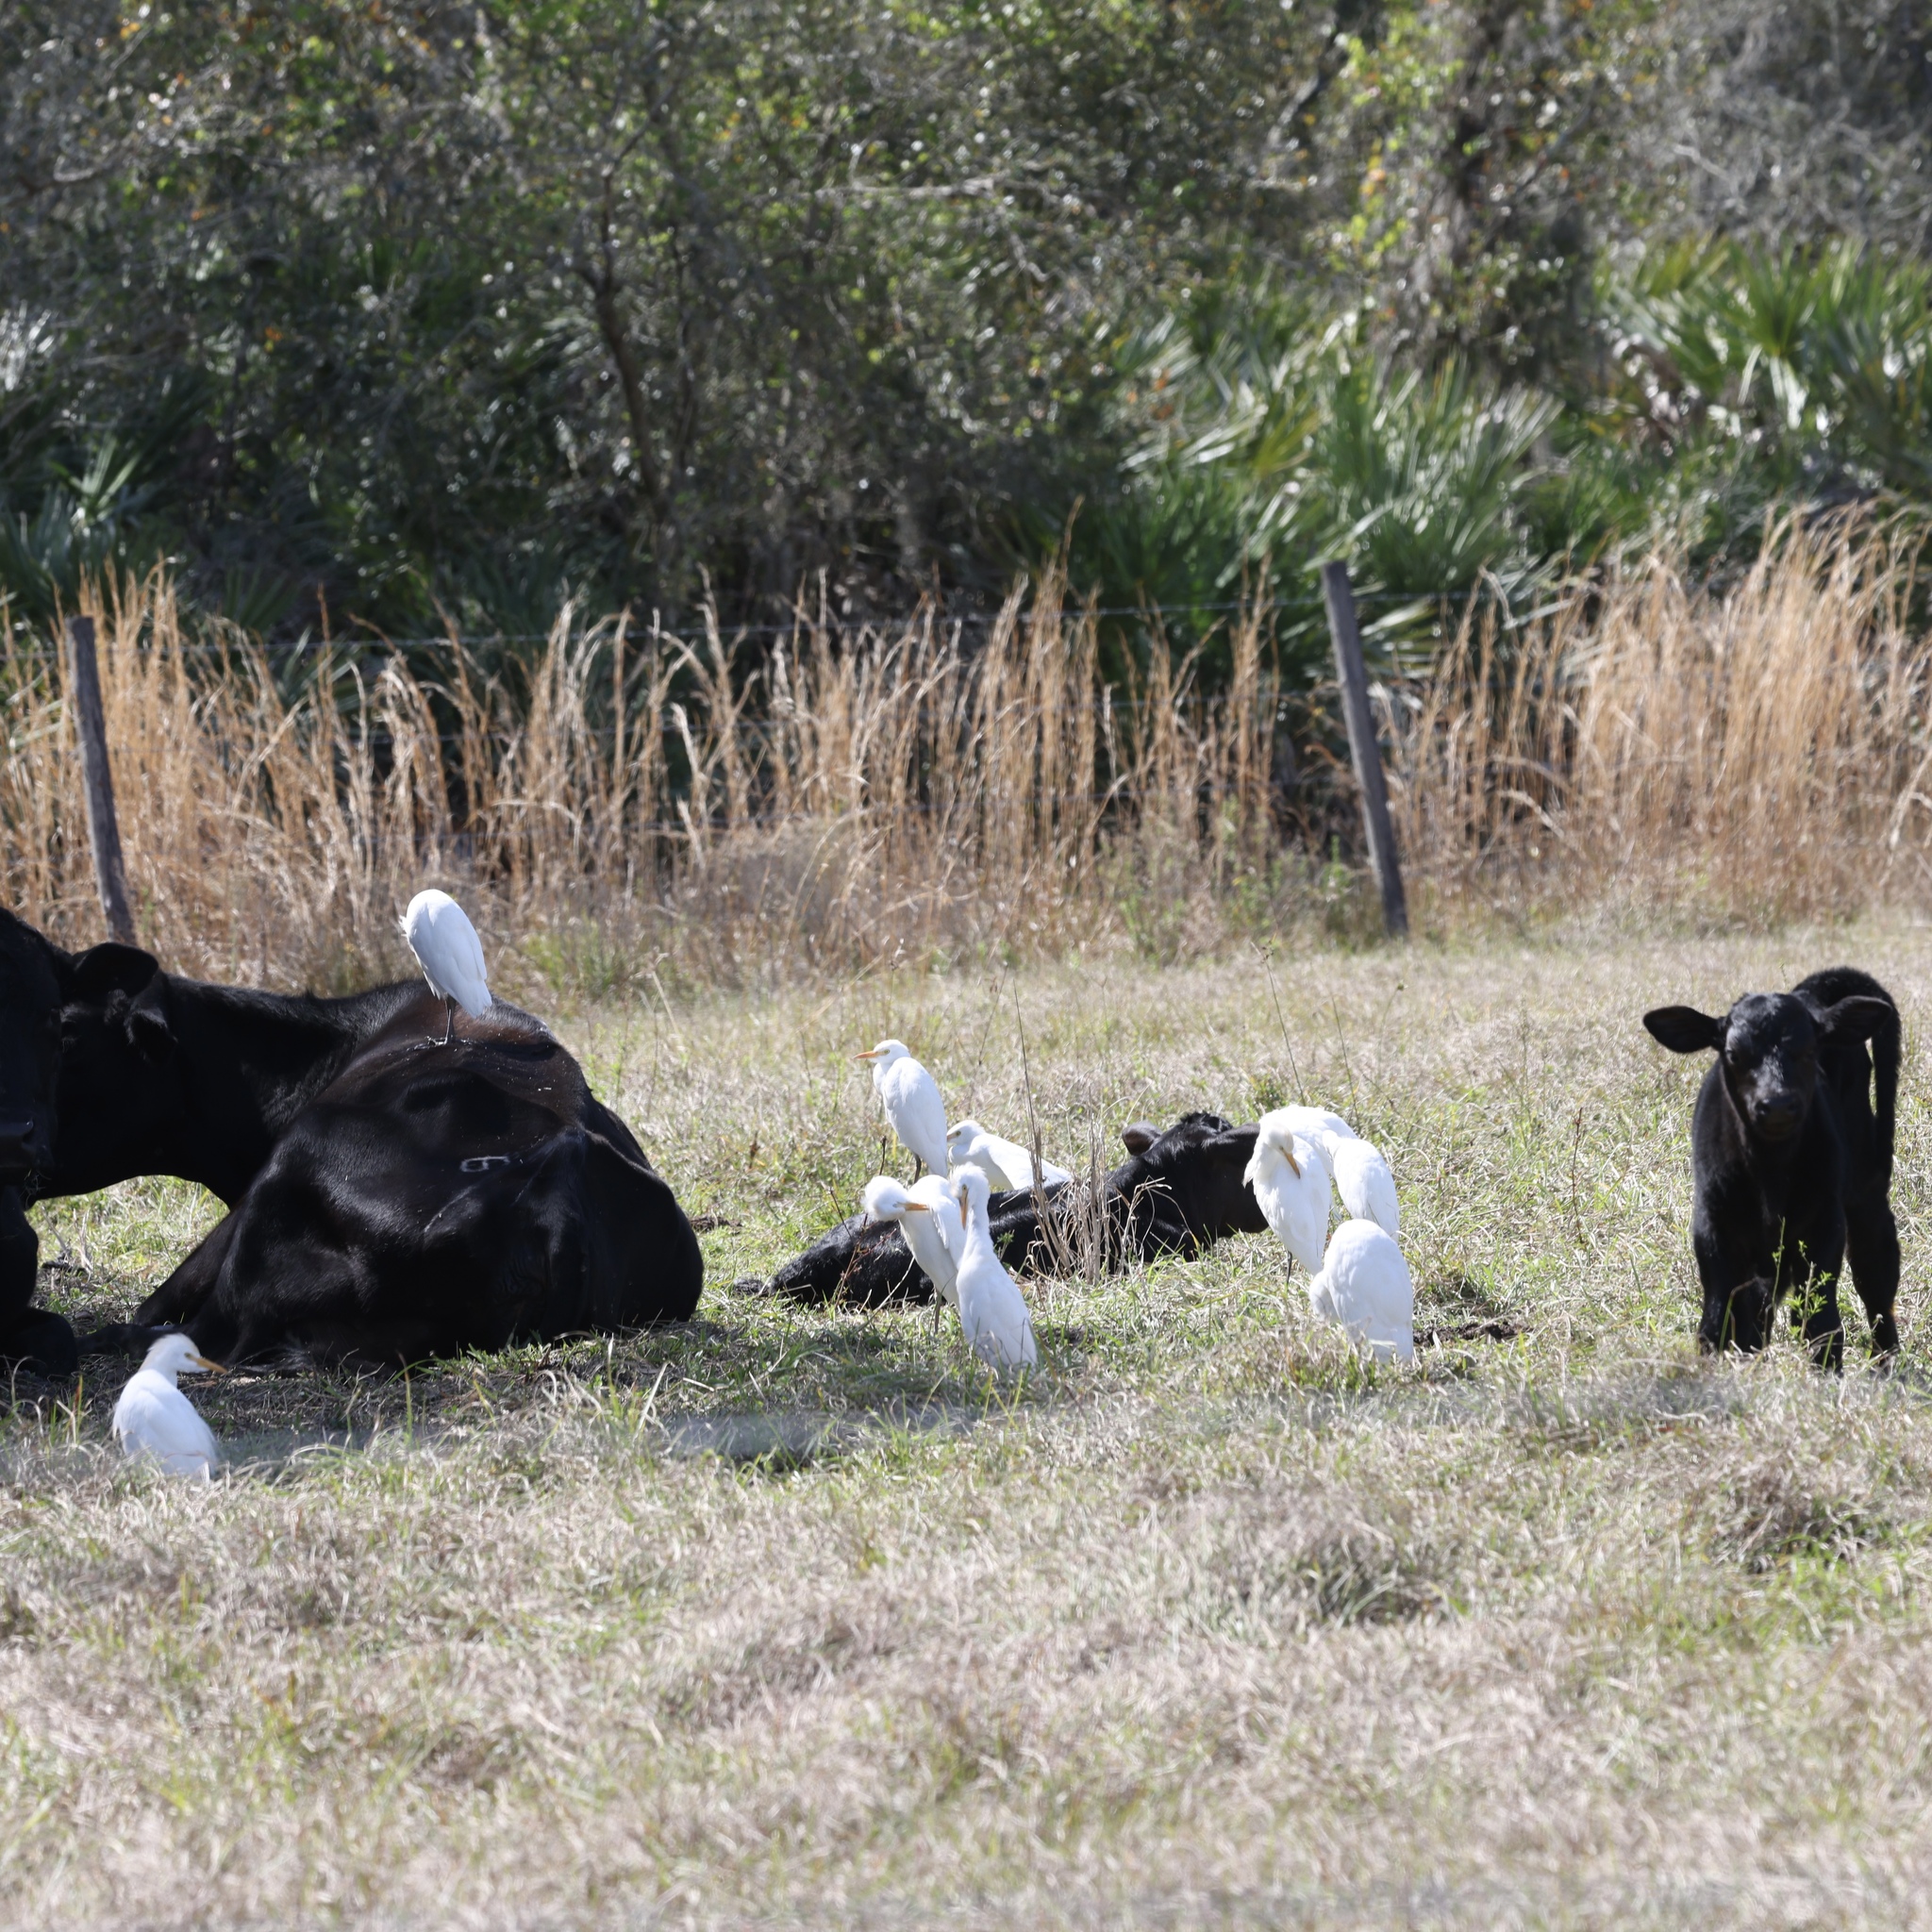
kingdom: Animalia
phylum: Chordata
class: Aves
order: Pelecaniformes
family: Ardeidae
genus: Bubulcus
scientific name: Bubulcus ibis
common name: Cattle egret
